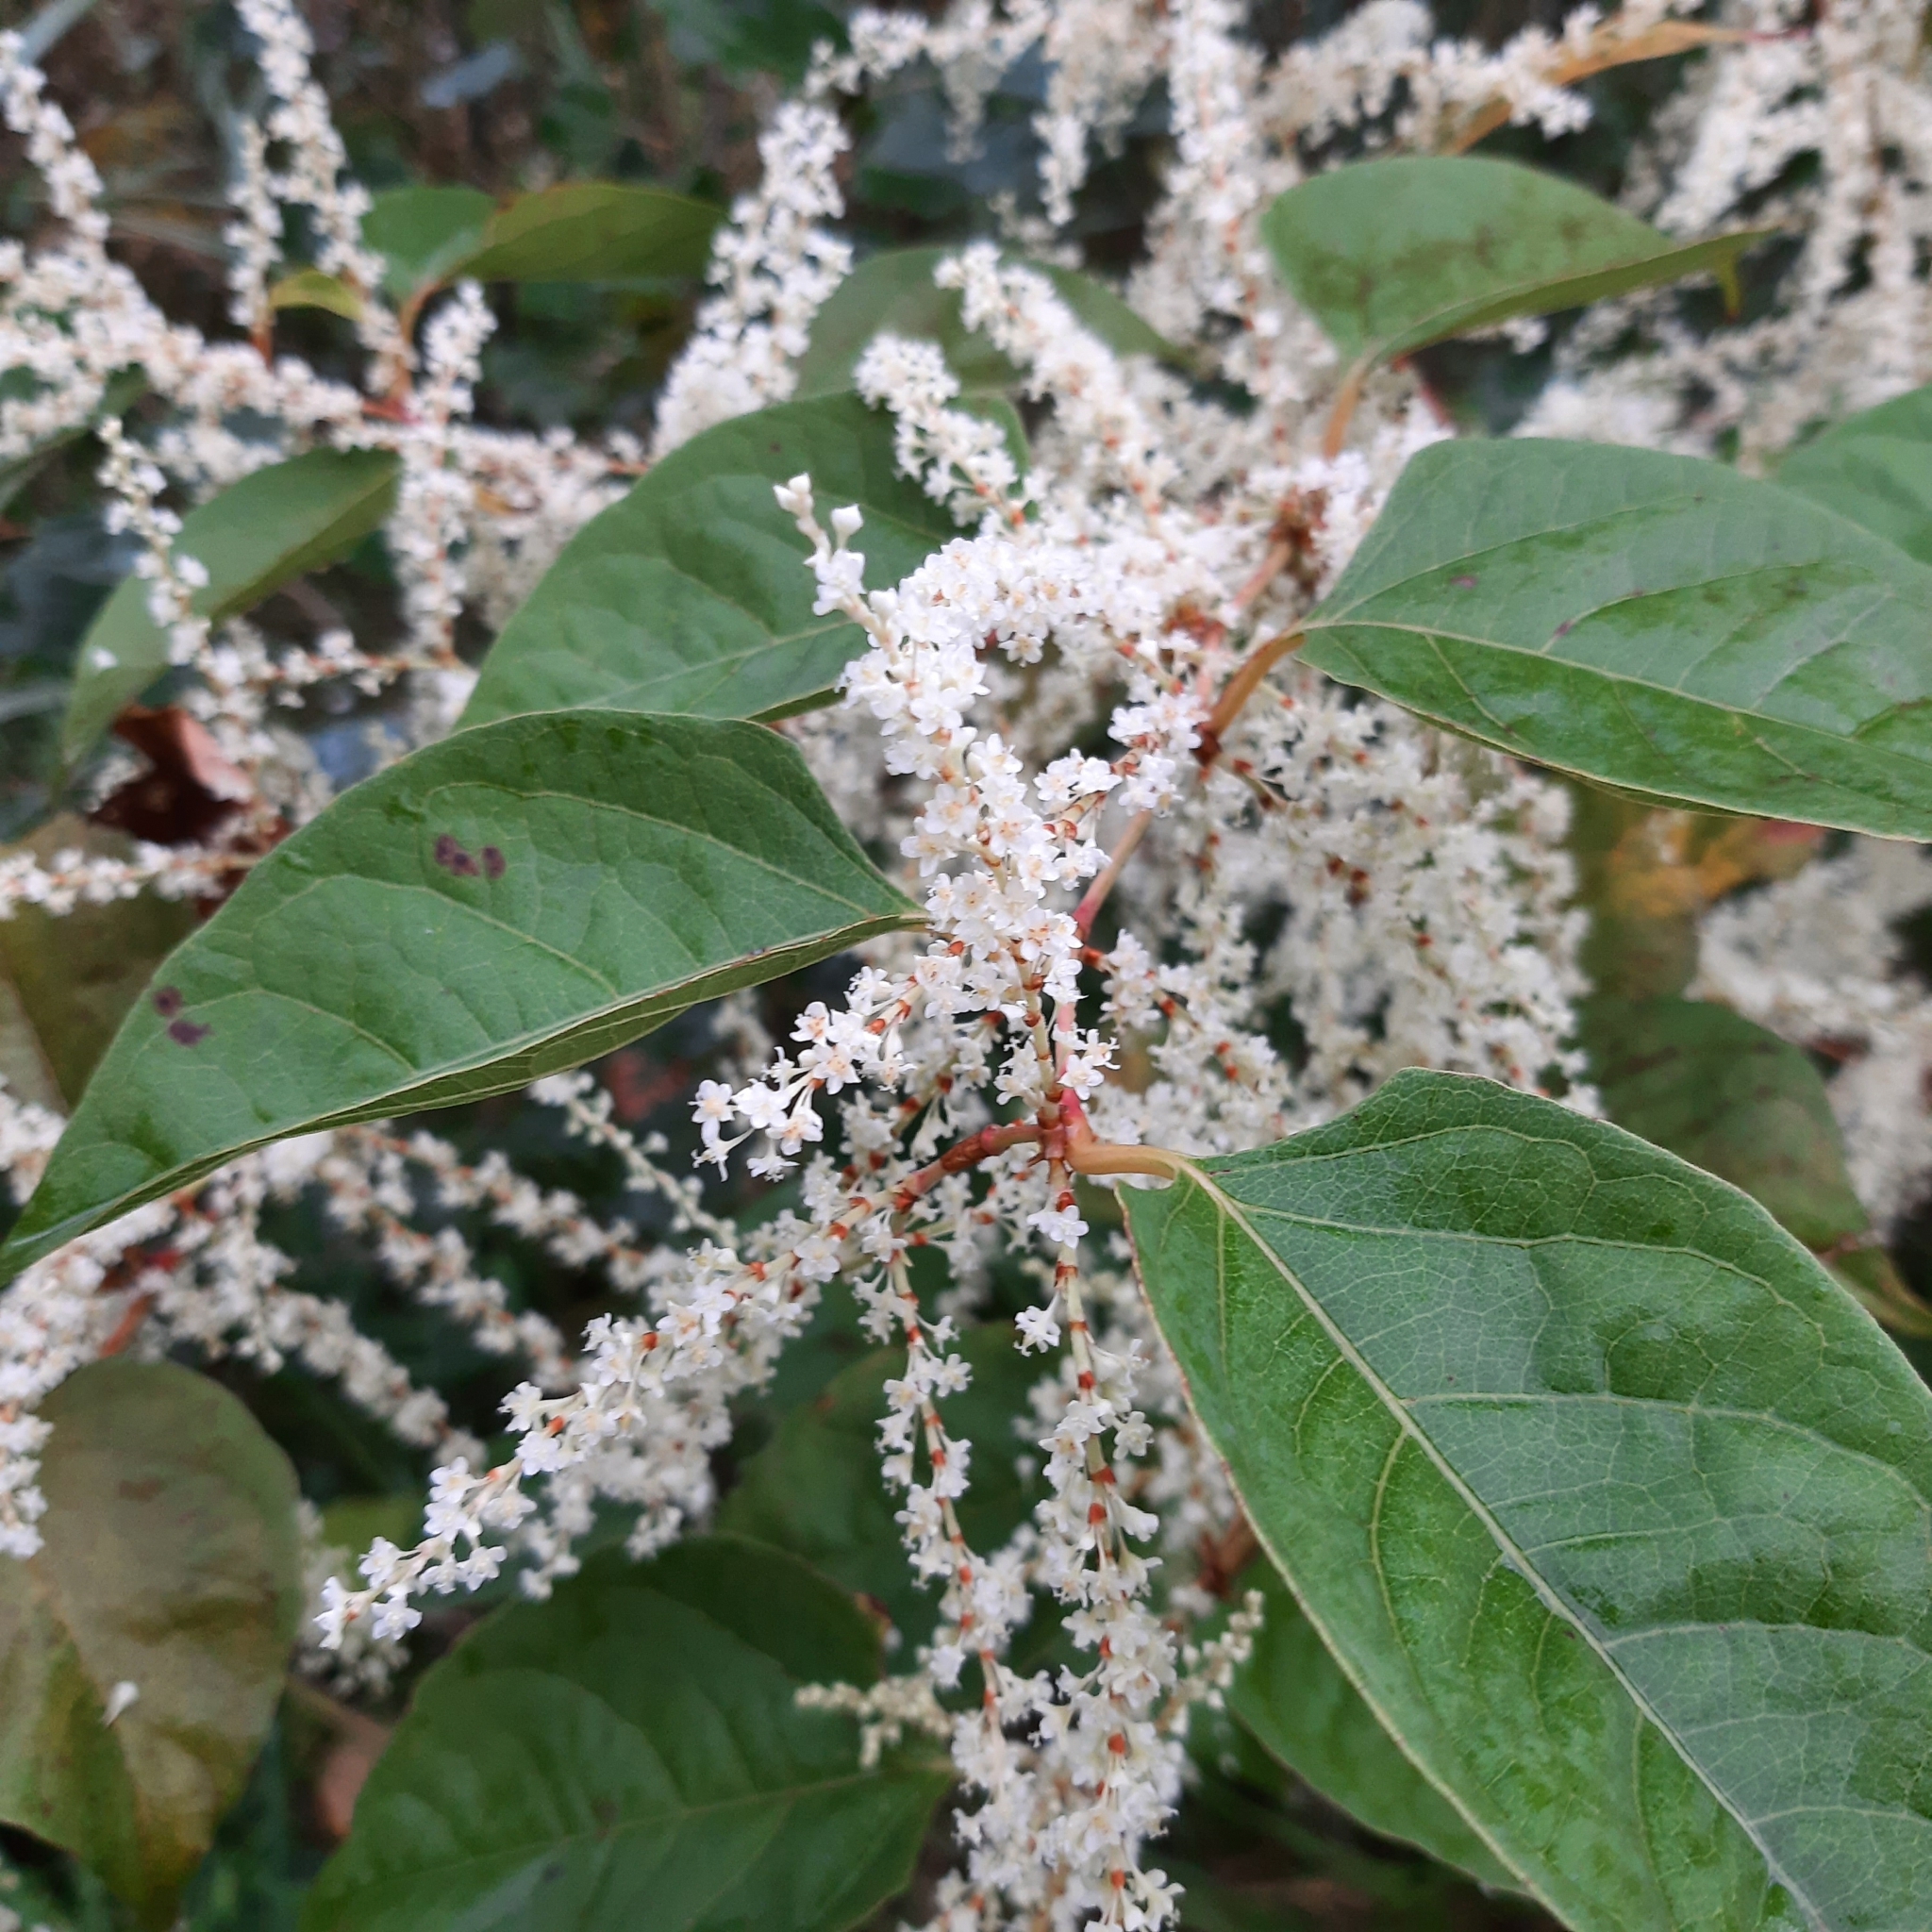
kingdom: Plantae
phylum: Tracheophyta
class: Magnoliopsida
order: Caryophyllales
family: Polygonaceae
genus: Reynoutria
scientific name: Reynoutria japonica
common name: Japanese knotweed
